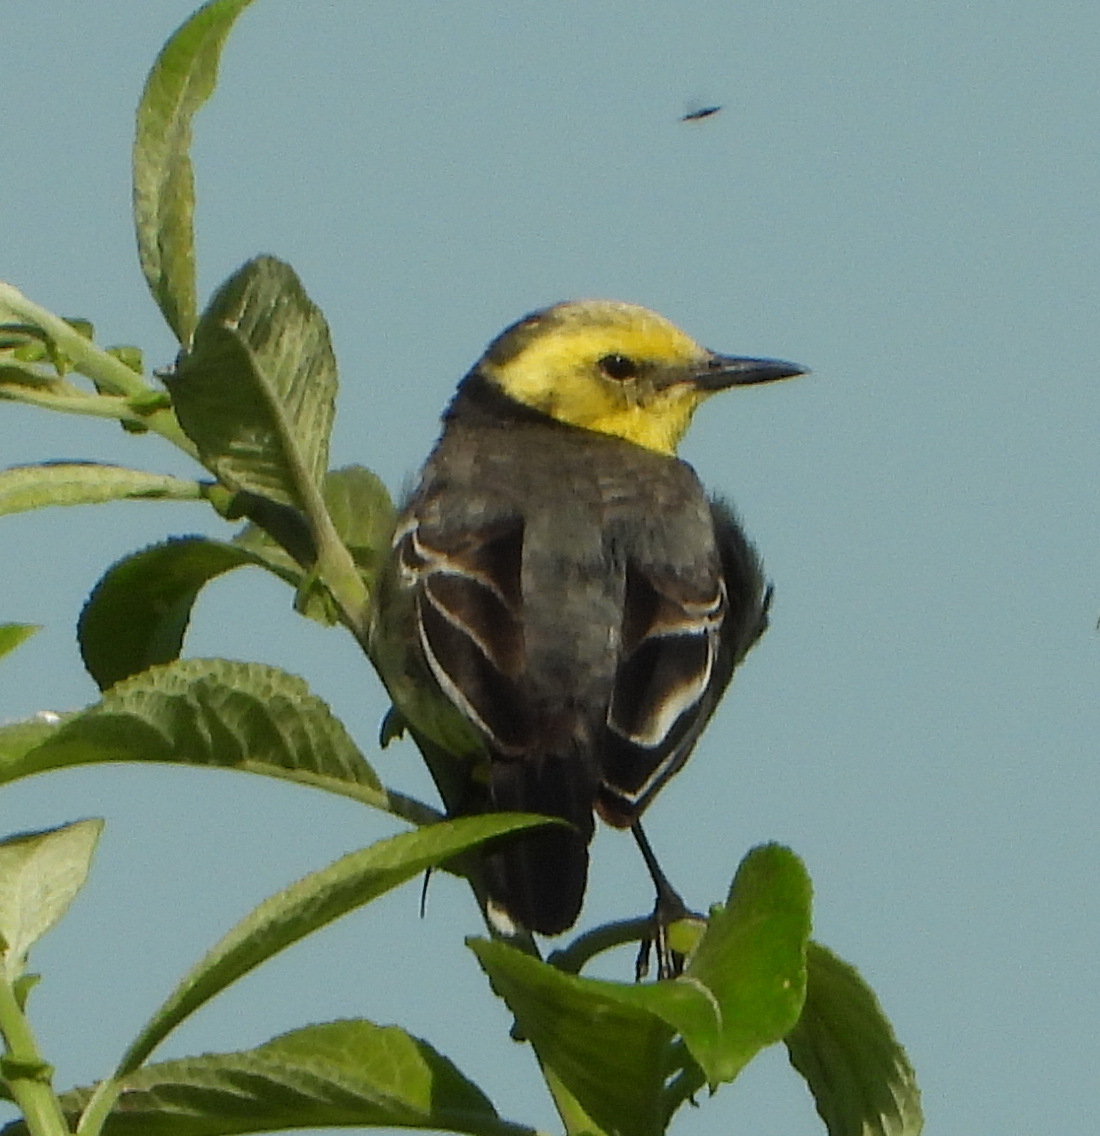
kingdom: Animalia
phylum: Chordata
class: Aves
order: Passeriformes
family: Motacillidae
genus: Motacilla
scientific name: Motacilla citreola
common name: Citrine wagtail
